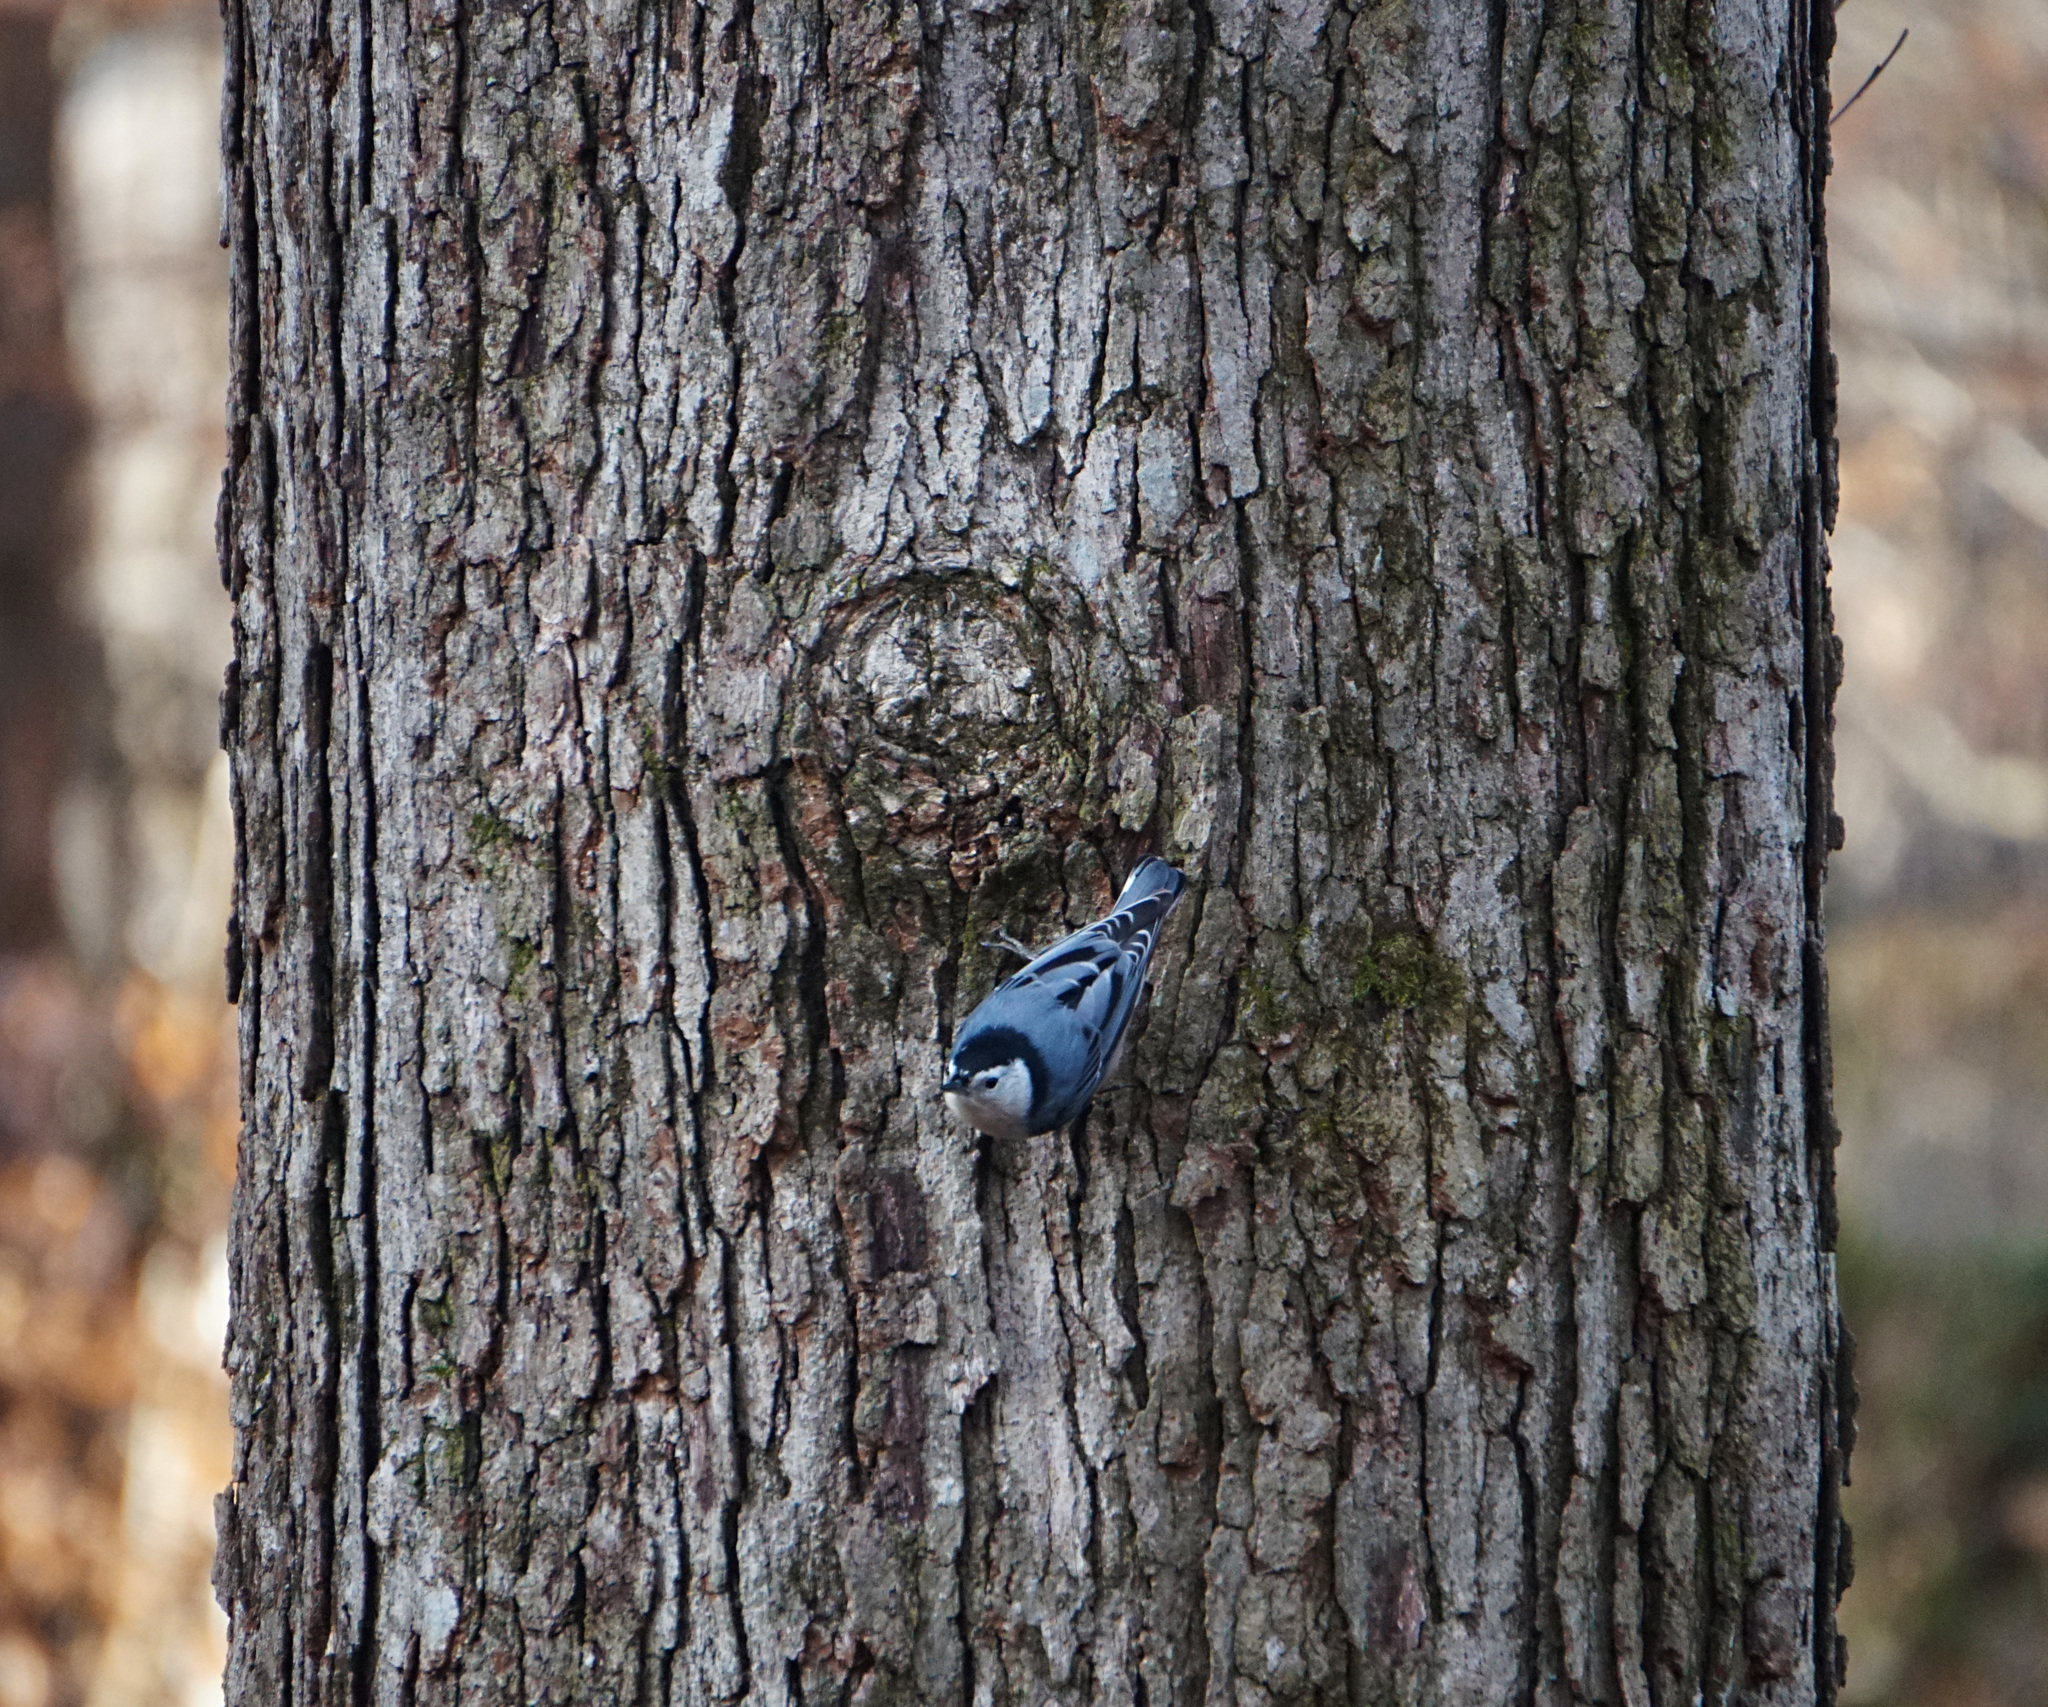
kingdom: Animalia
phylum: Chordata
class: Aves
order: Passeriformes
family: Sittidae
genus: Sitta
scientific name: Sitta carolinensis
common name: White-breasted nuthatch
